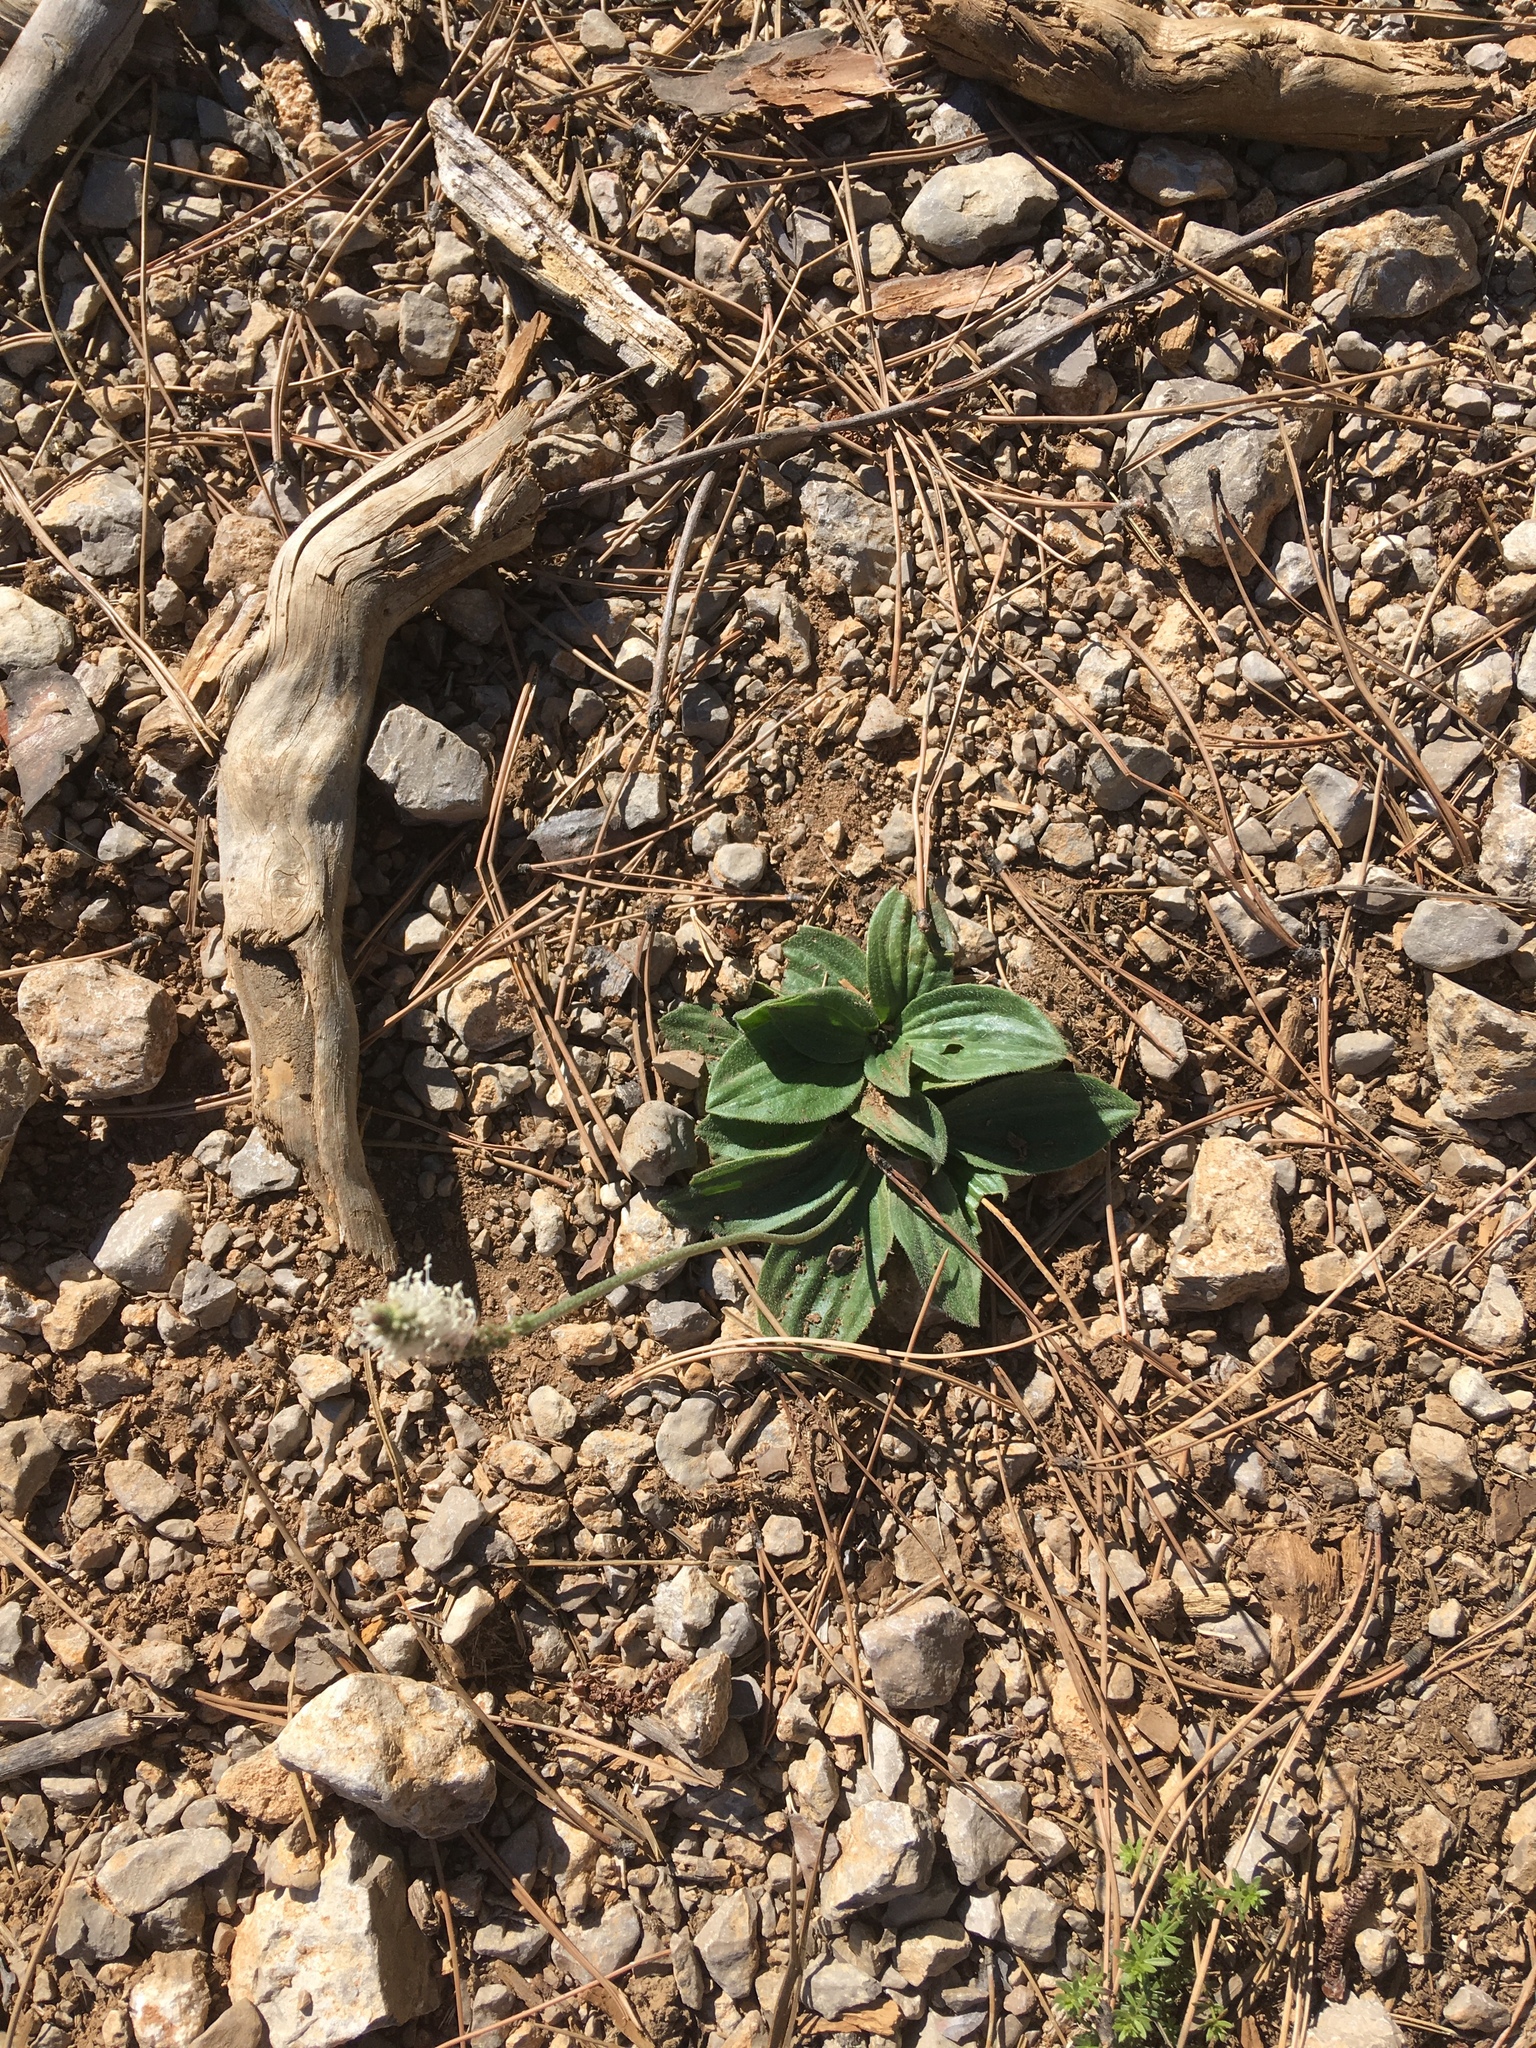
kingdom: Plantae
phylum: Tracheophyta
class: Magnoliopsida
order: Lamiales
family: Plantaginaceae
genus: Plantago
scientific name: Plantago media
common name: Hoary plantain
